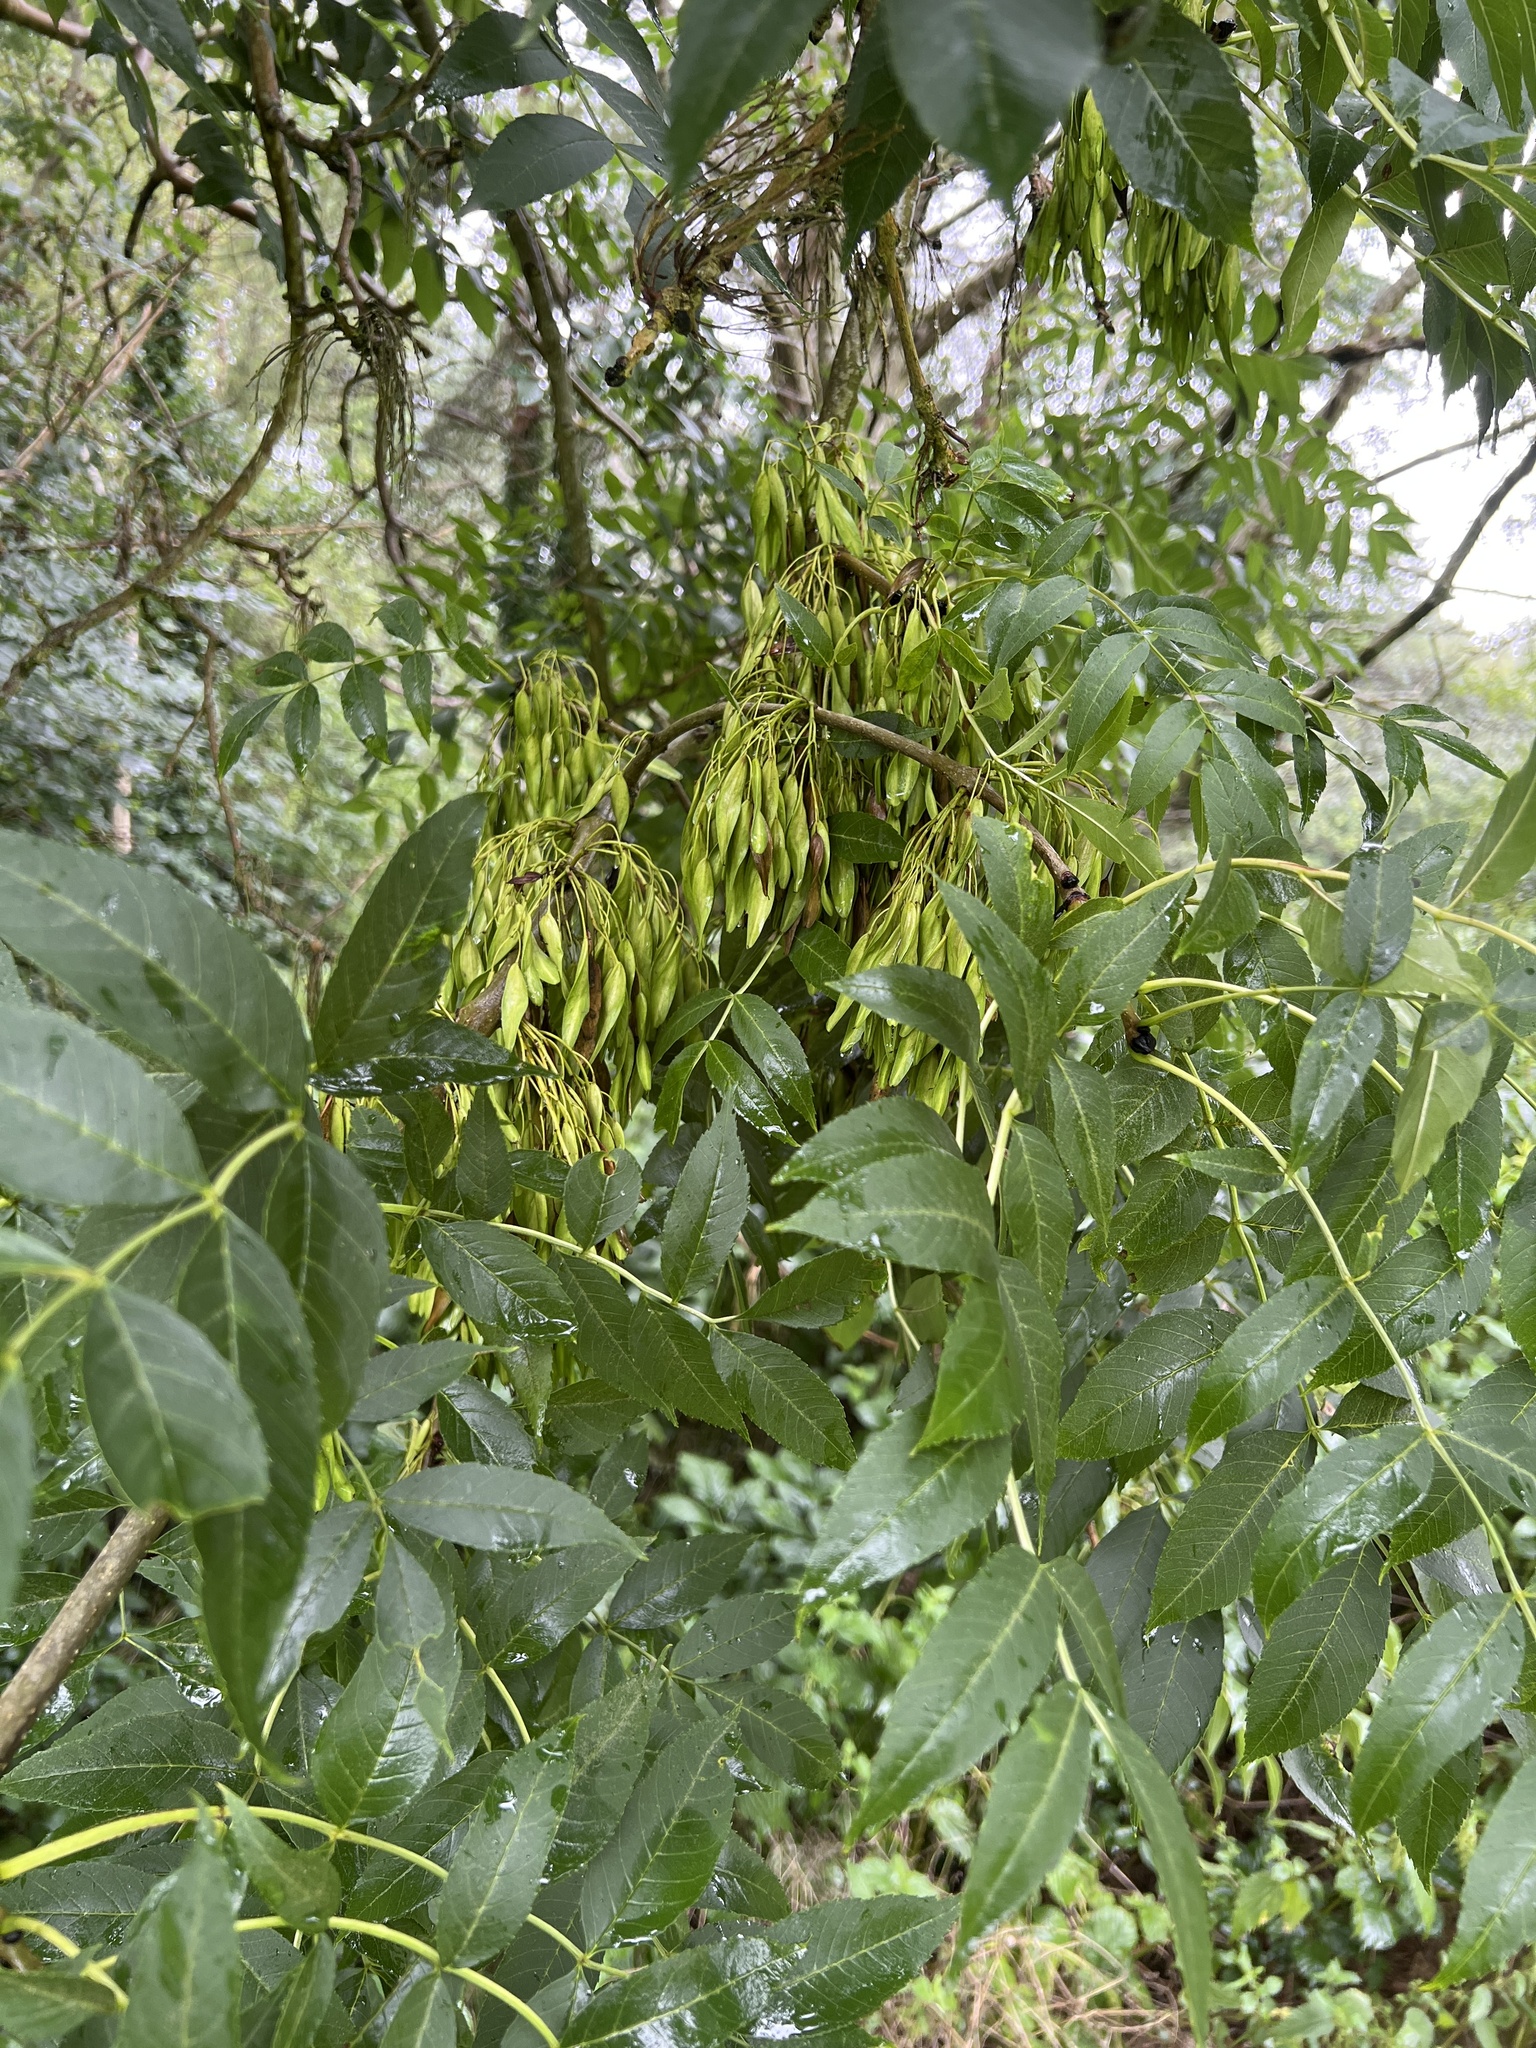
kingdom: Plantae
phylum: Tracheophyta
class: Magnoliopsida
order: Lamiales
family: Oleaceae
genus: Fraxinus
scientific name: Fraxinus excelsior
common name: European ash
